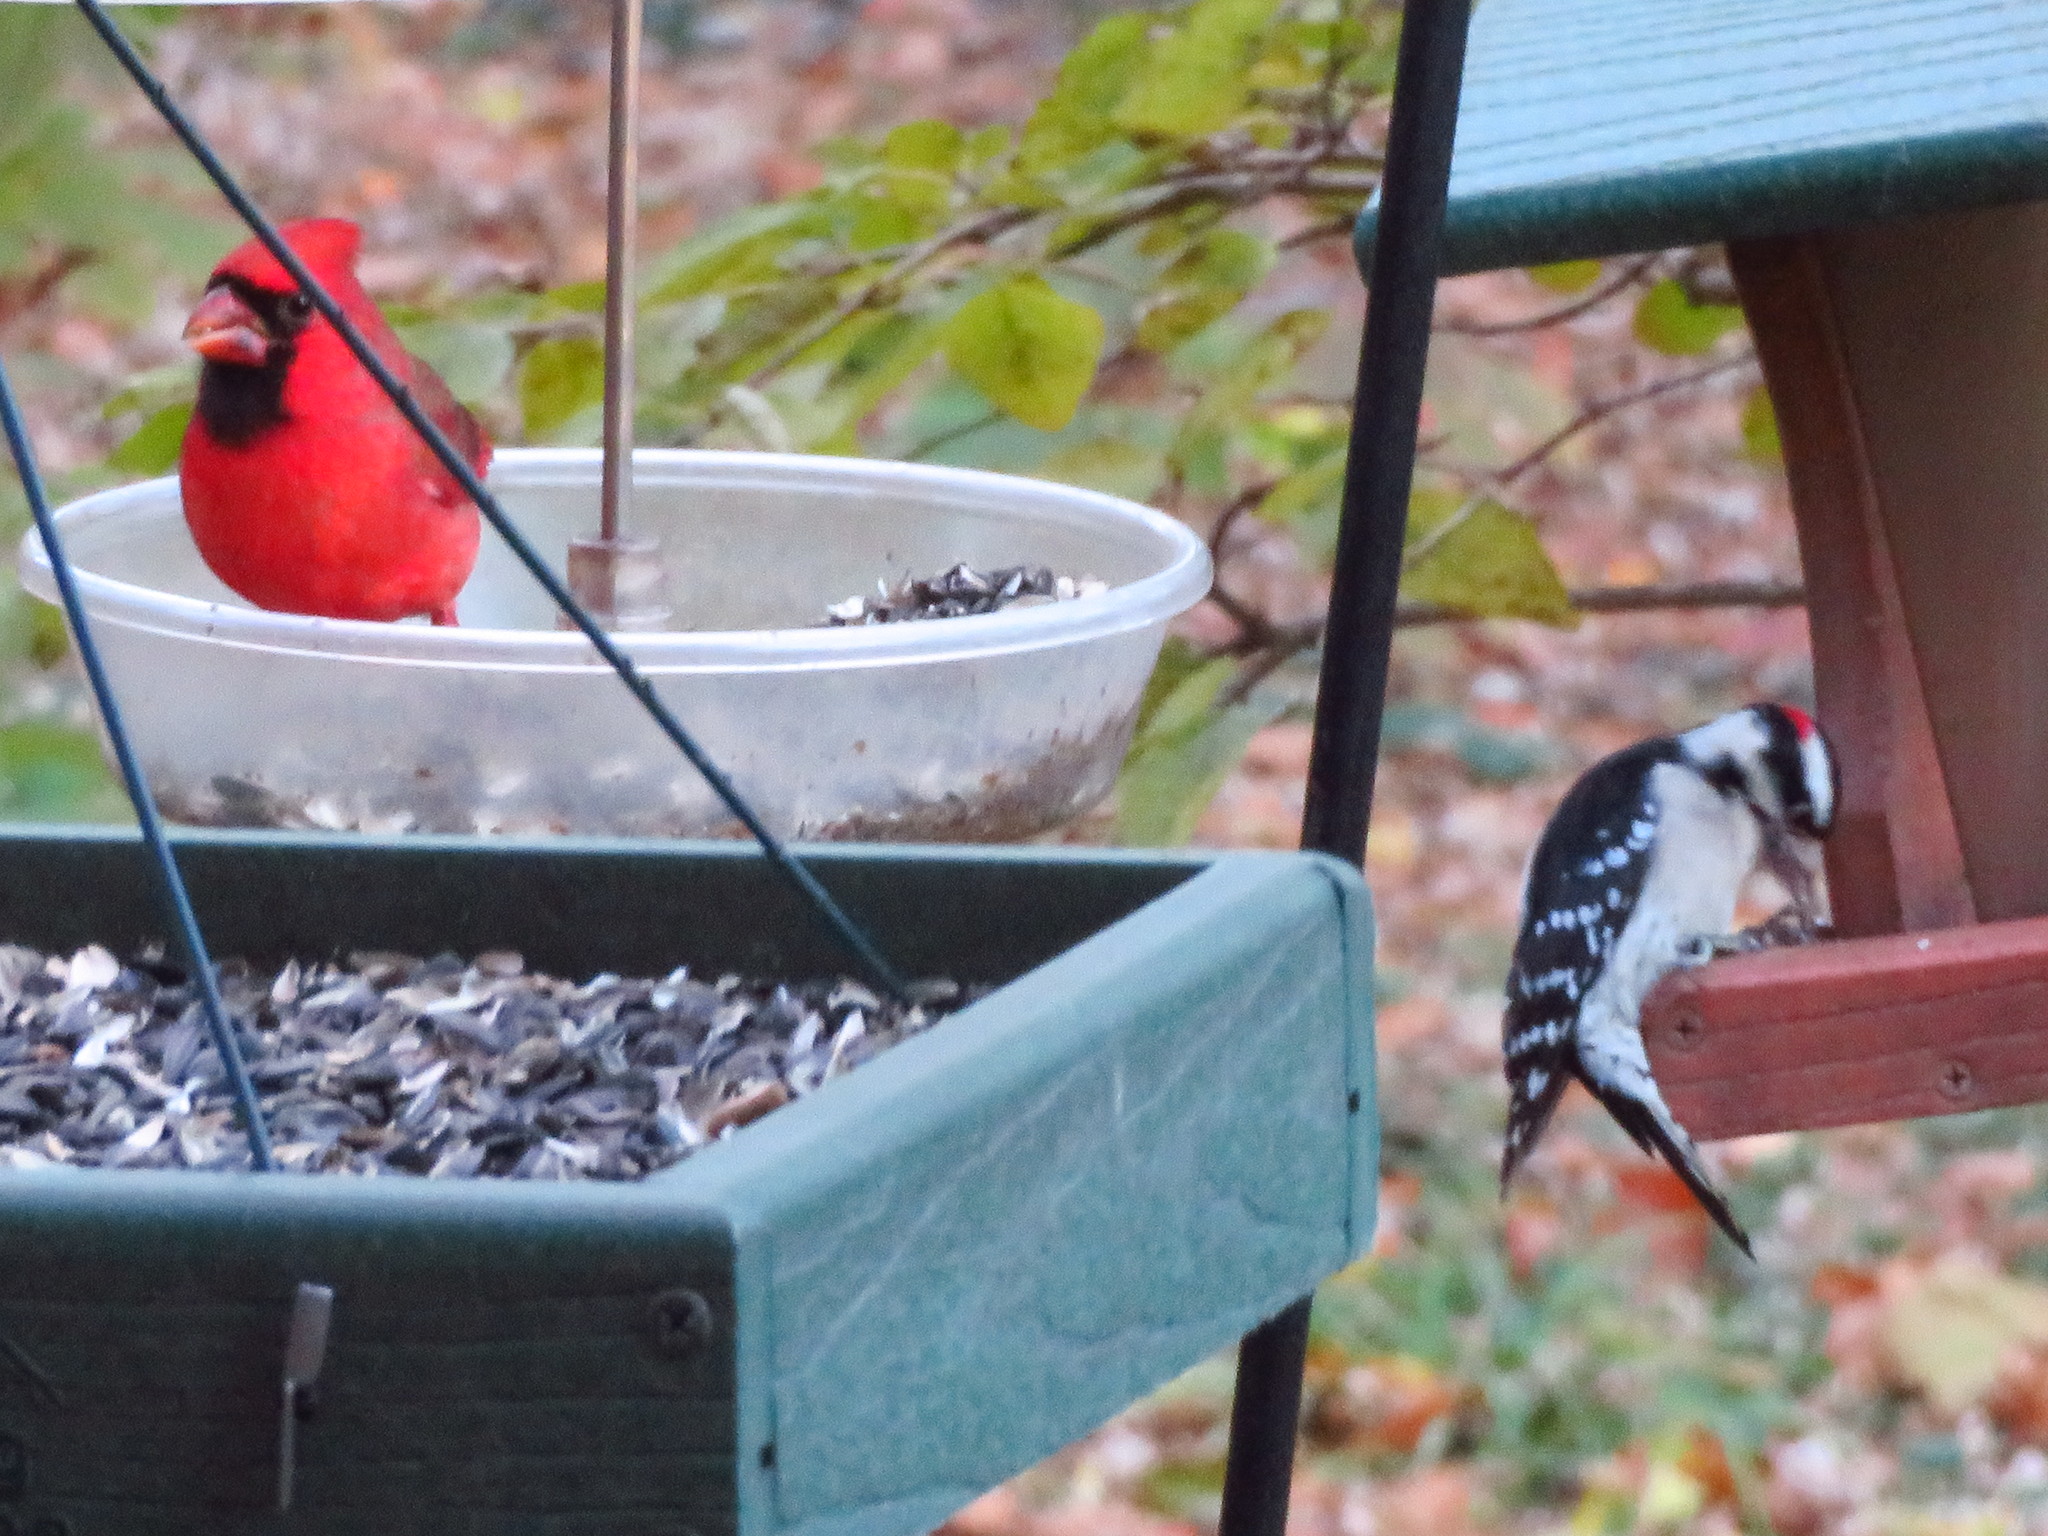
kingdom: Animalia
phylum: Chordata
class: Aves
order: Passeriformes
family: Cardinalidae
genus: Cardinalis
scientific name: Cardinalis cardinalis
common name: Northern cardinal
